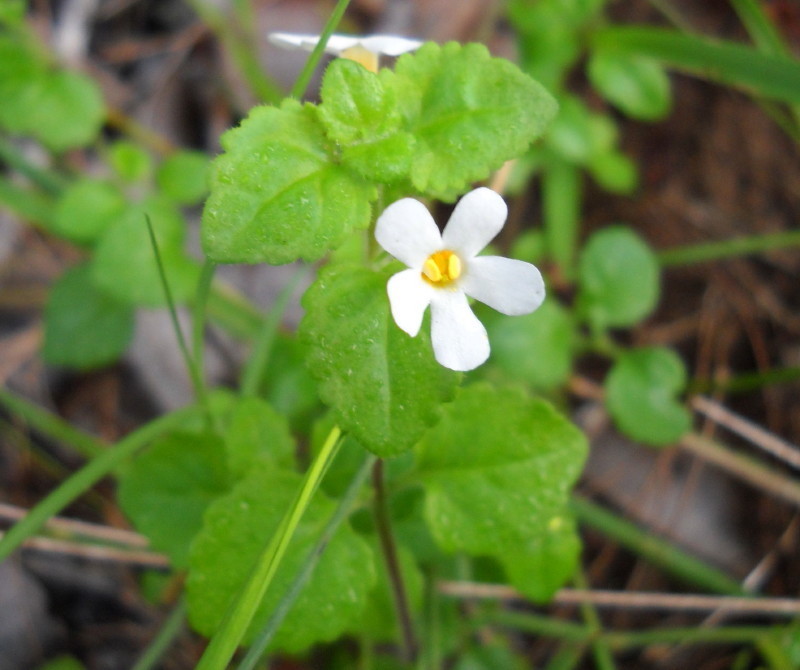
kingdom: Plantae
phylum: Tracheophyta
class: Magnoliopsida
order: Lamiales
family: Scrophulariaceae
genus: Chaenostoma
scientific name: Chaenostoma cordatum
